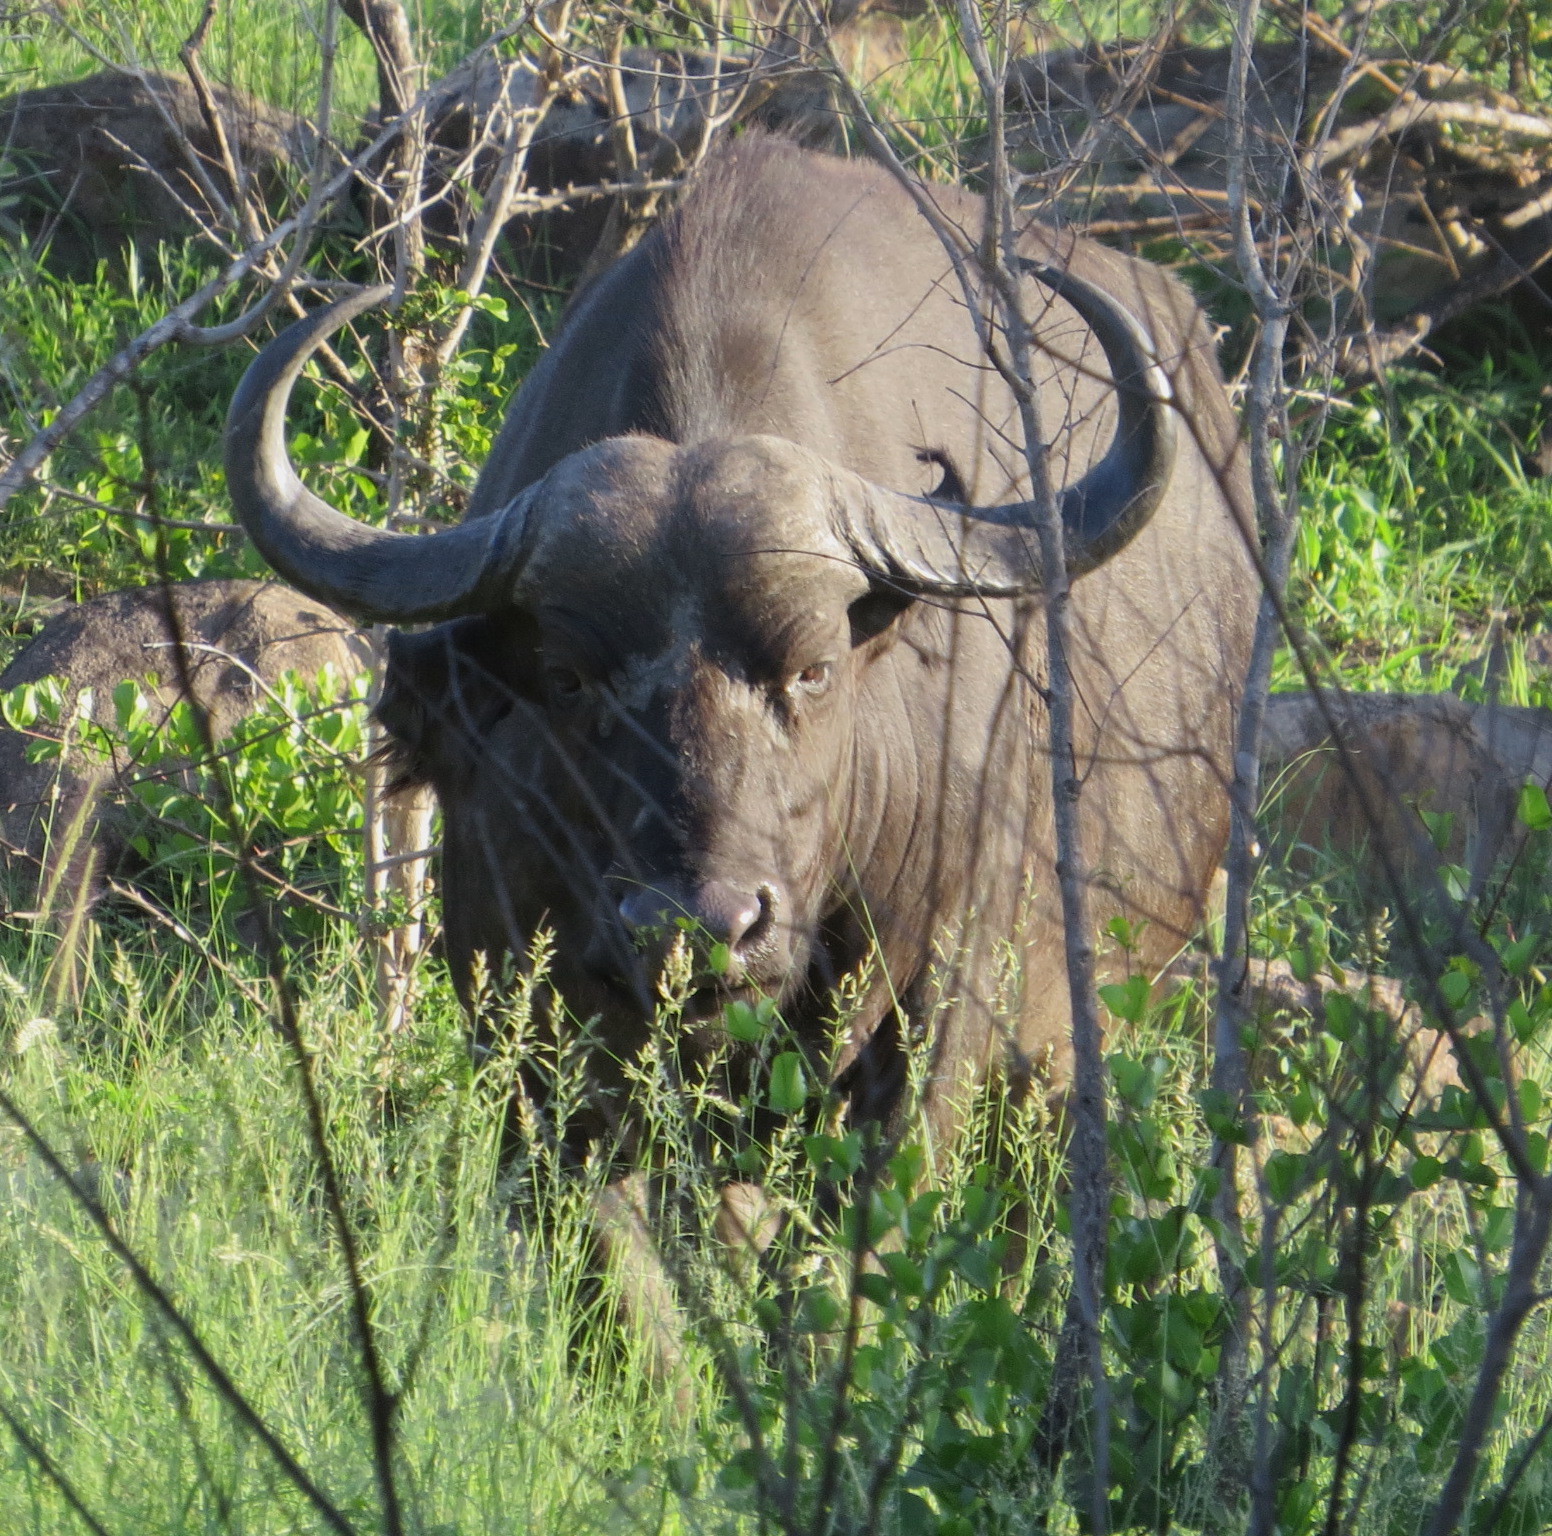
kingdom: Animalia
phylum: Chordata
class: Mammalia
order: Artiodactyla
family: Bovidae
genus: Syncerus
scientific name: Syncerus caffer
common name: African buffalo
